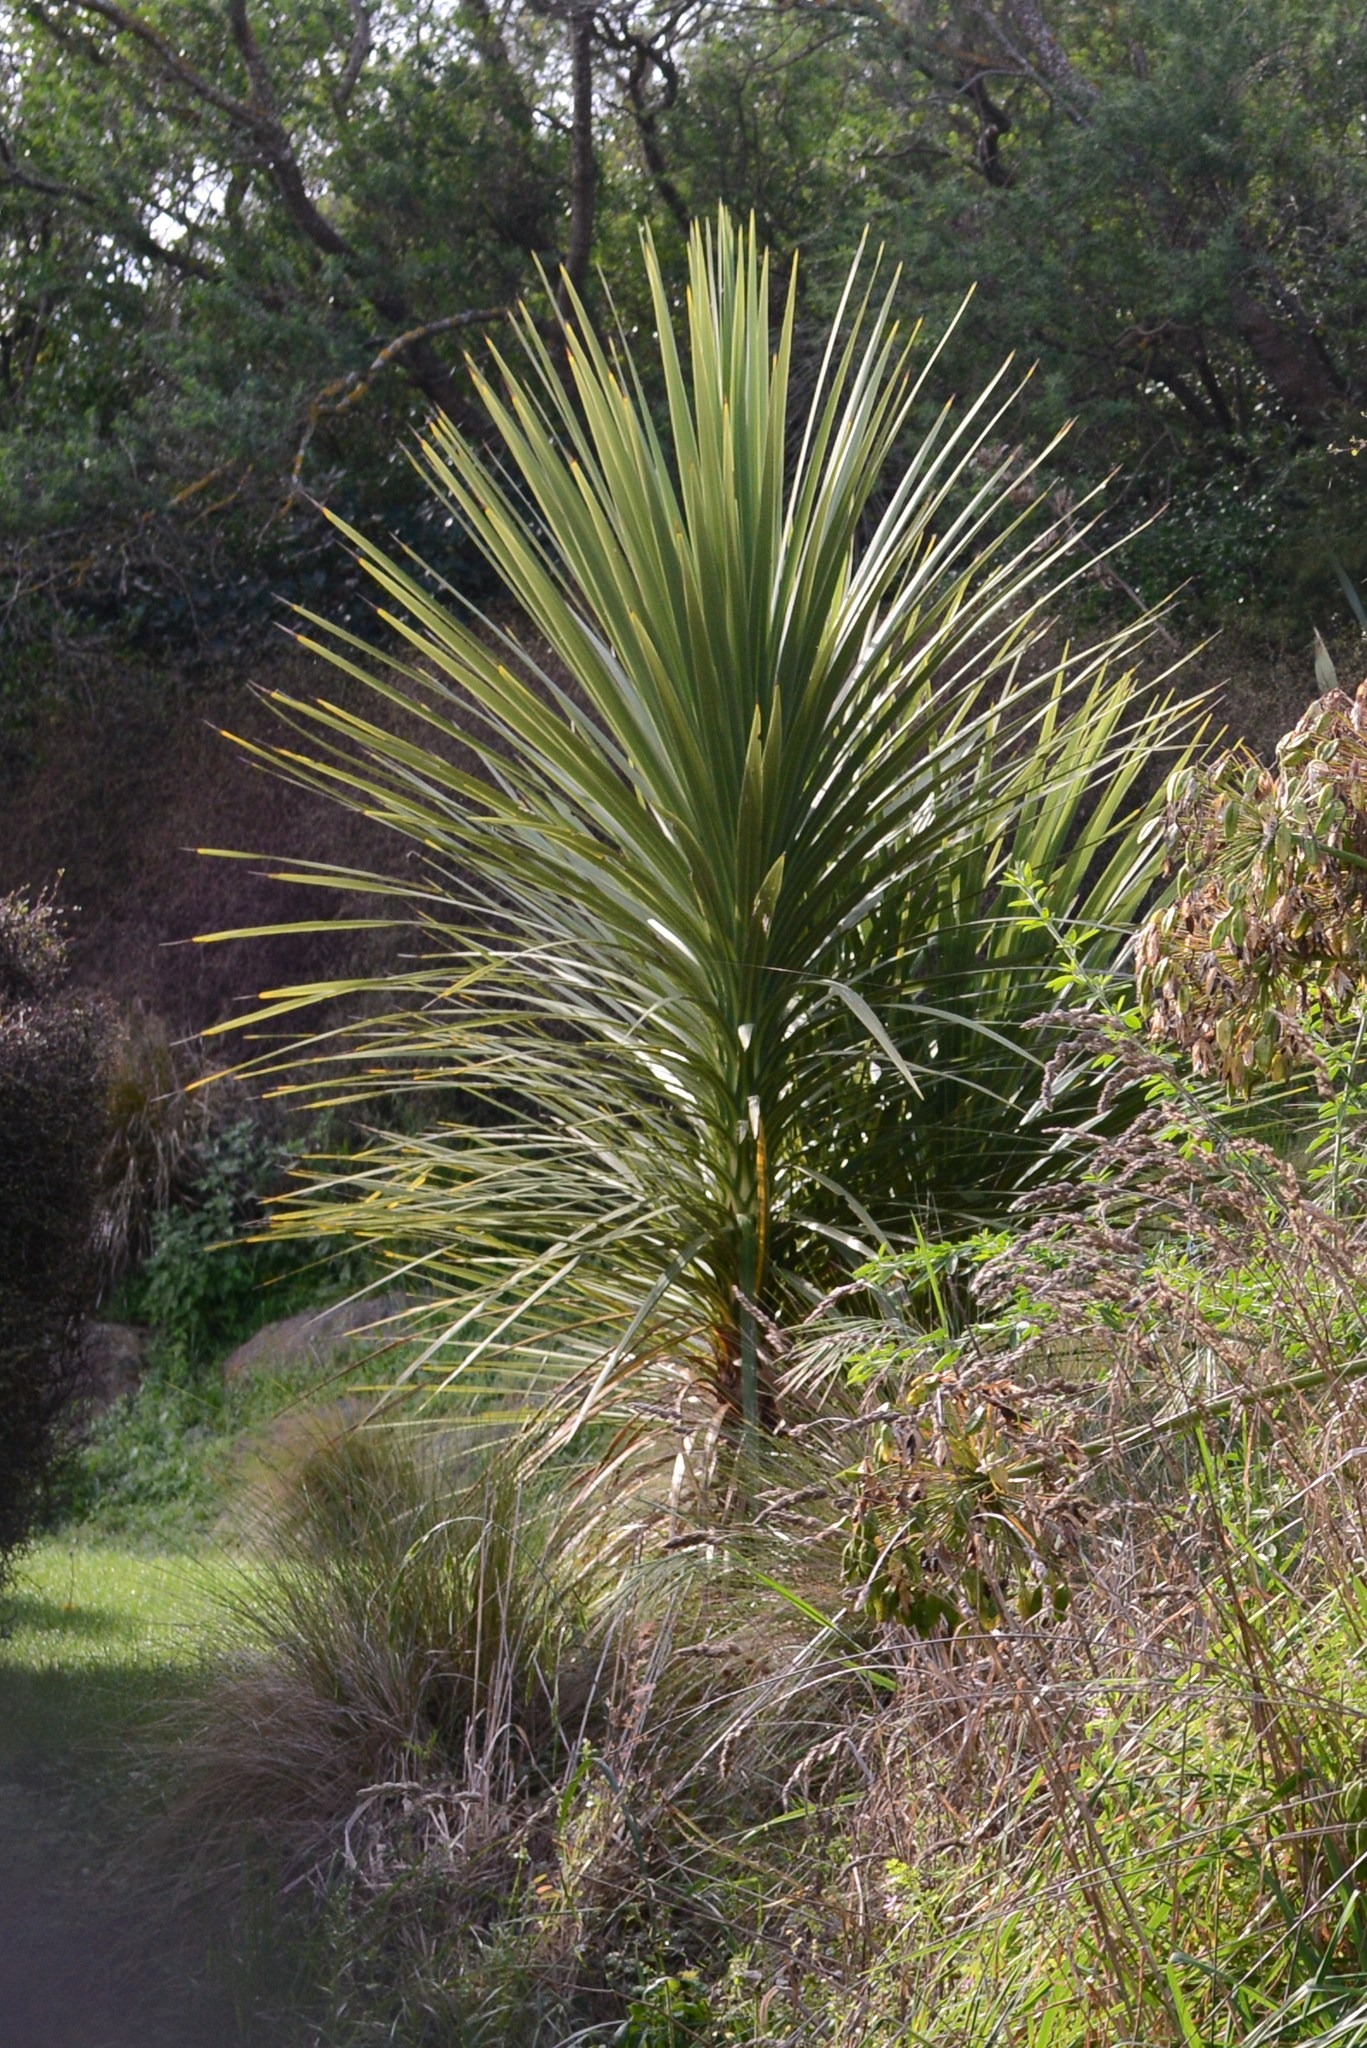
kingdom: Plantae
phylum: Tracheophyta
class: Liliopsida
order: Asparagales
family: Asparagaceae
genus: Cordyline
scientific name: Cordyline australis
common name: Cabbage-palm
